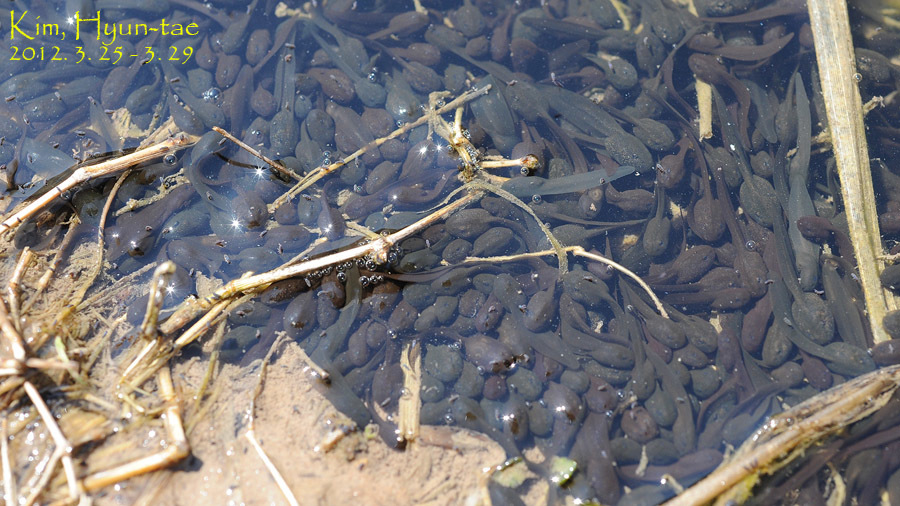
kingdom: Animalia
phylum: Chordata
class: Amphibia
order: Anura
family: Ranidae
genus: Rana
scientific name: Rana uenoi
